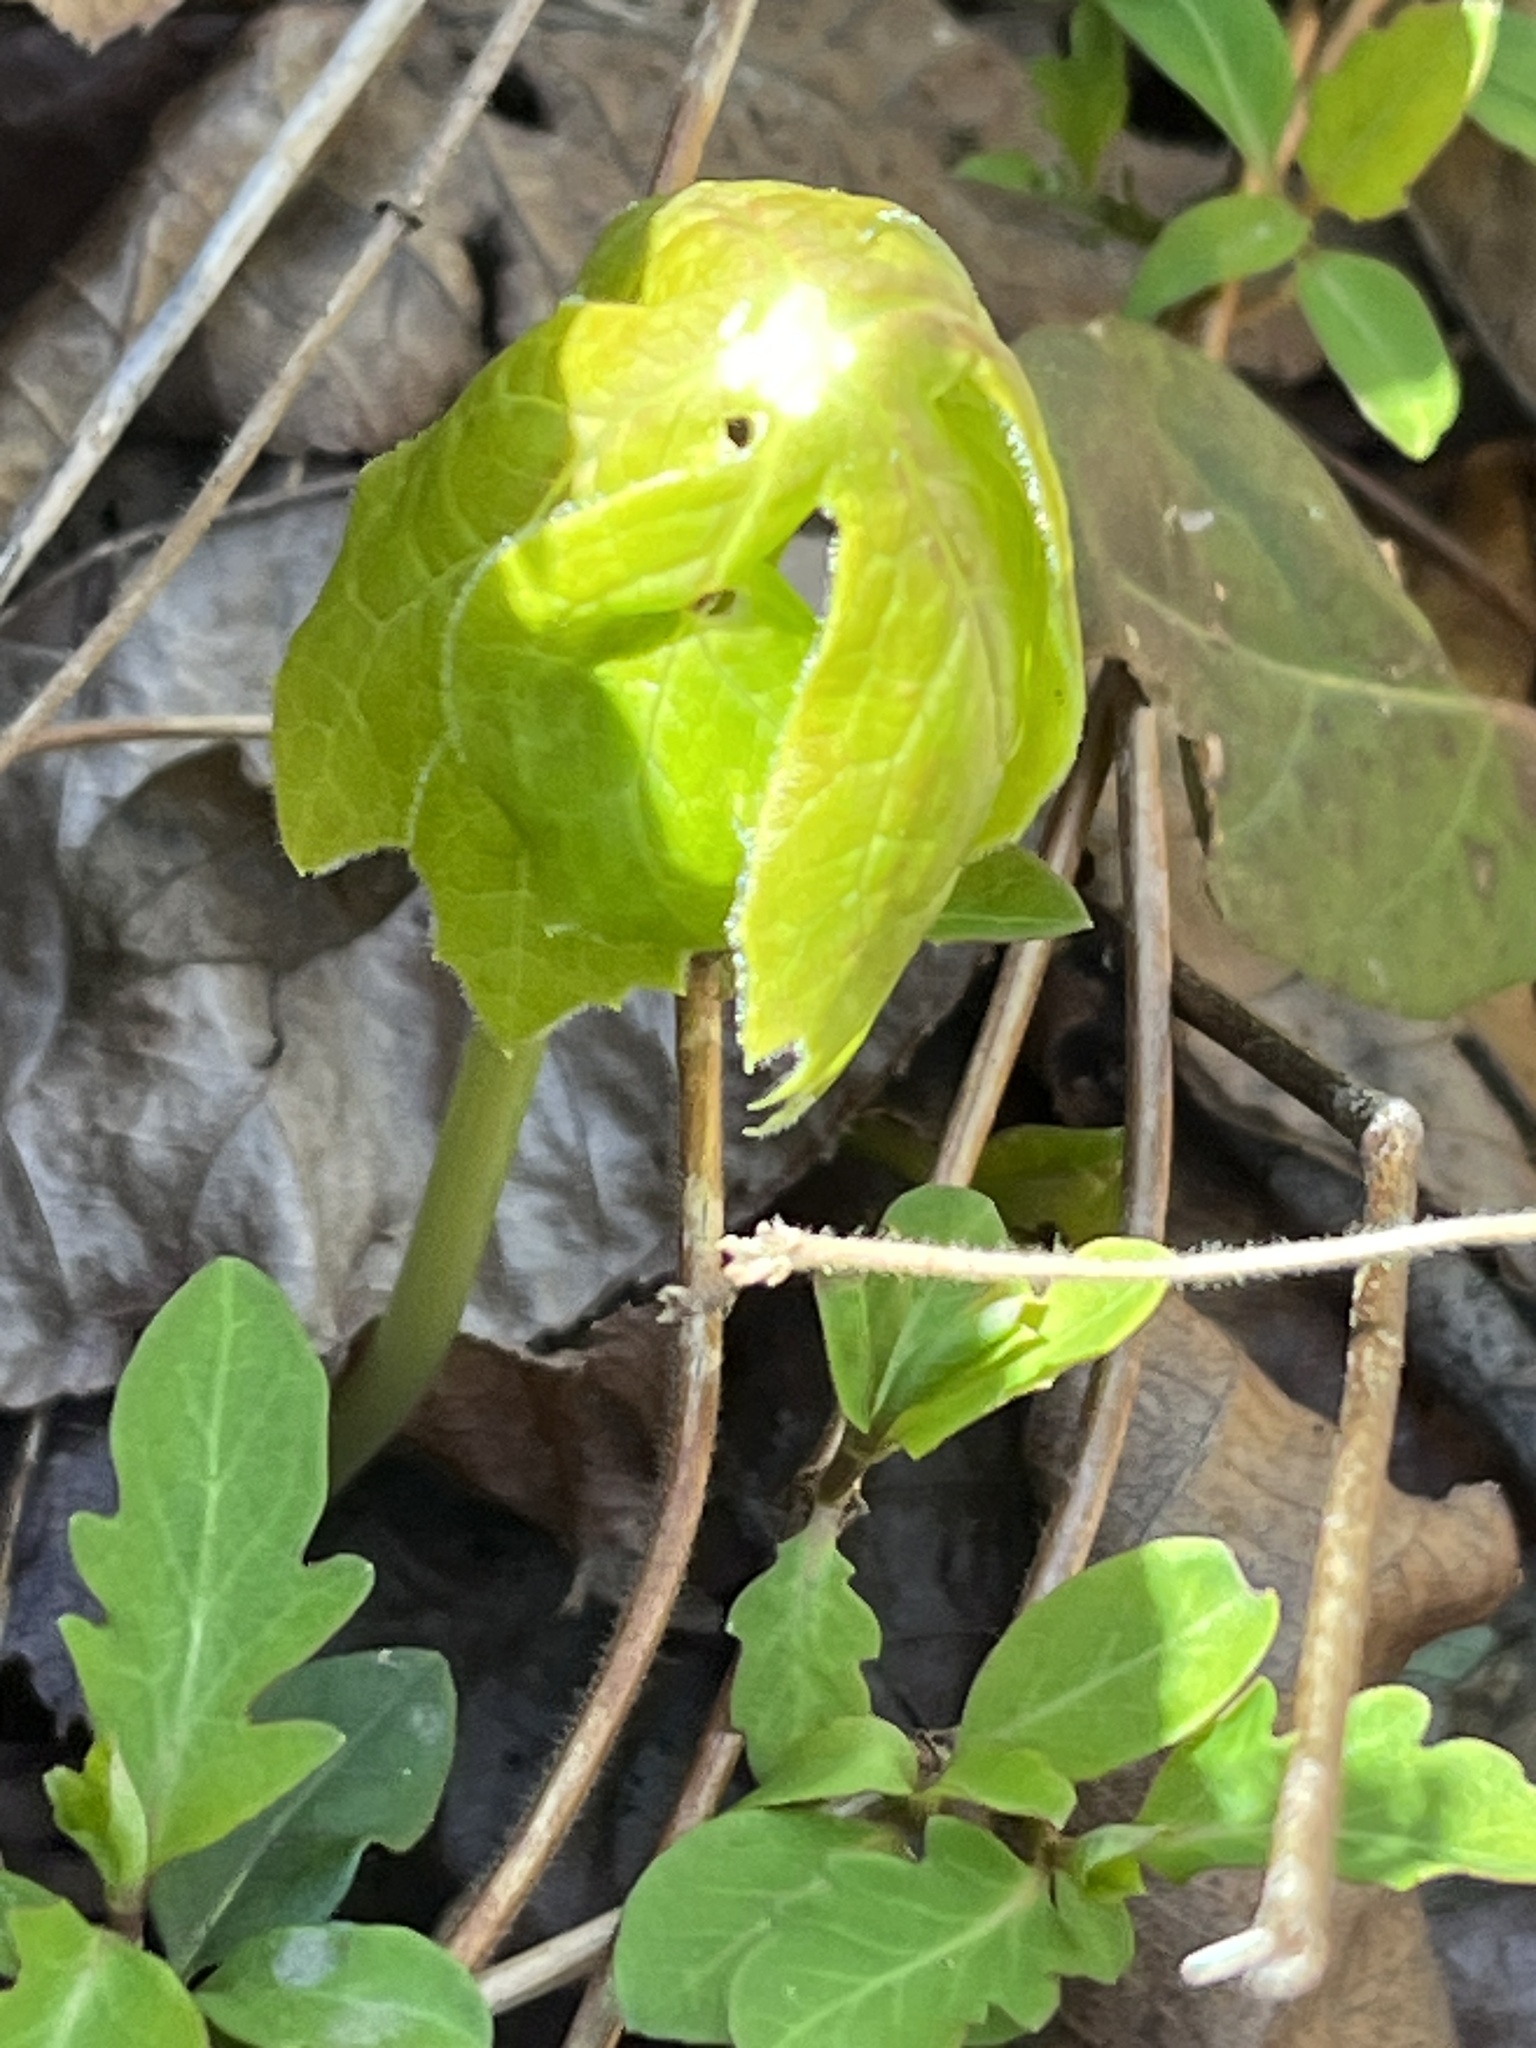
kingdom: Plantae
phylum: Tracheophyta
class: Magnoliopsida
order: Ranunculales
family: Berberidaceae
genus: Podophyllum
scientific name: Podophyllum peltatum
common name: Wild mandrake
